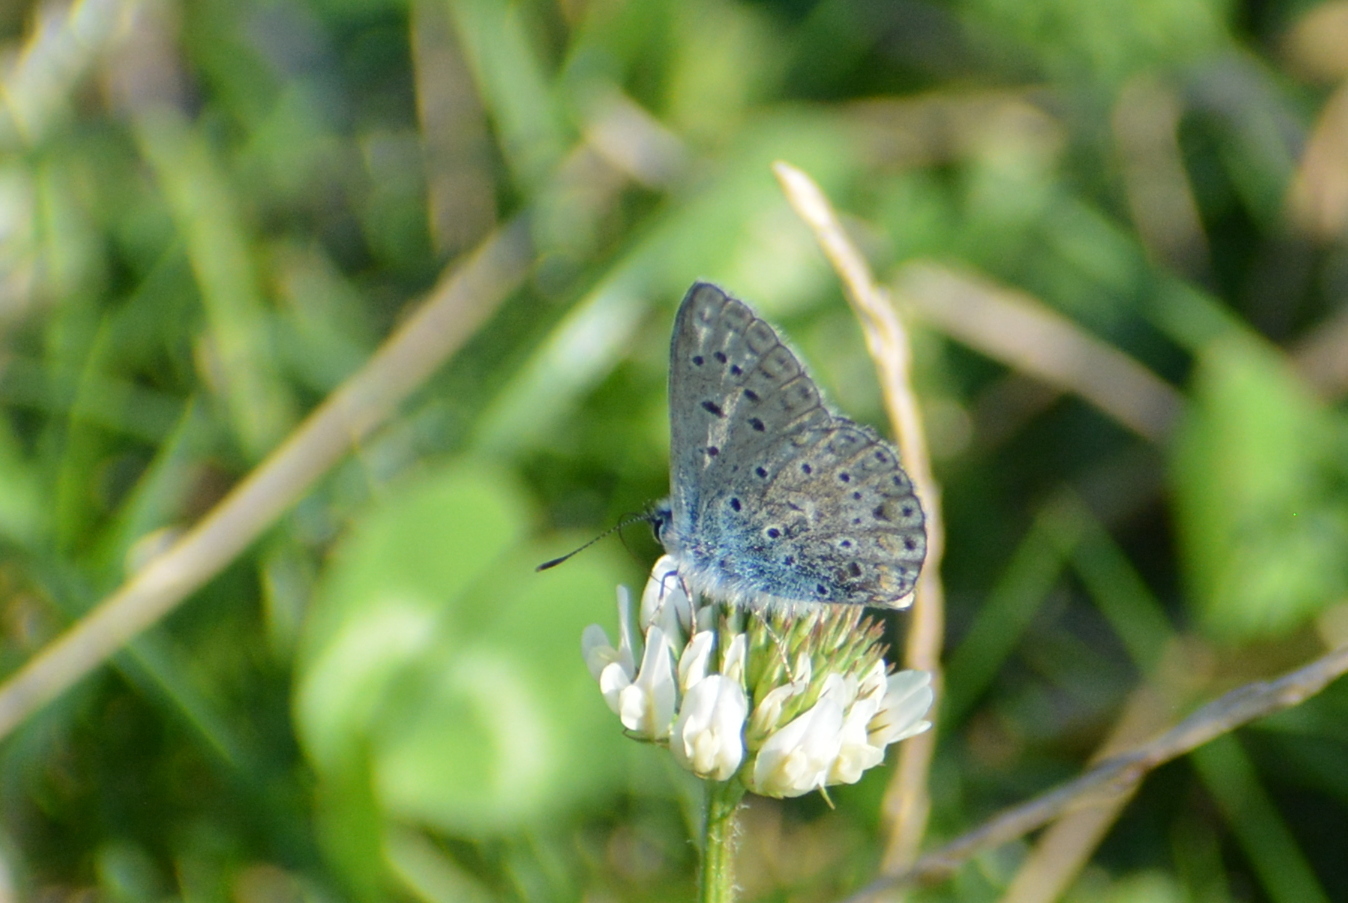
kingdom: Animalia
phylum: Arthropoda
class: Insecta
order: Lepidoptera
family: Lycaenidae
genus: Polyommatus
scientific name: Polyommatus icarus
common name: Common blue
